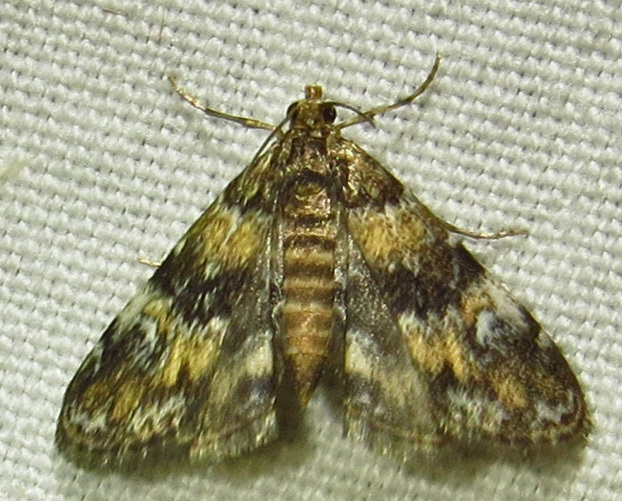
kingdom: Animalia
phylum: Arthropoda
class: Insecta
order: Lepidoptera
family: Crambidae
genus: Elophila
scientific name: Elophila obliteralis
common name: Waterlily leafcutter moth
